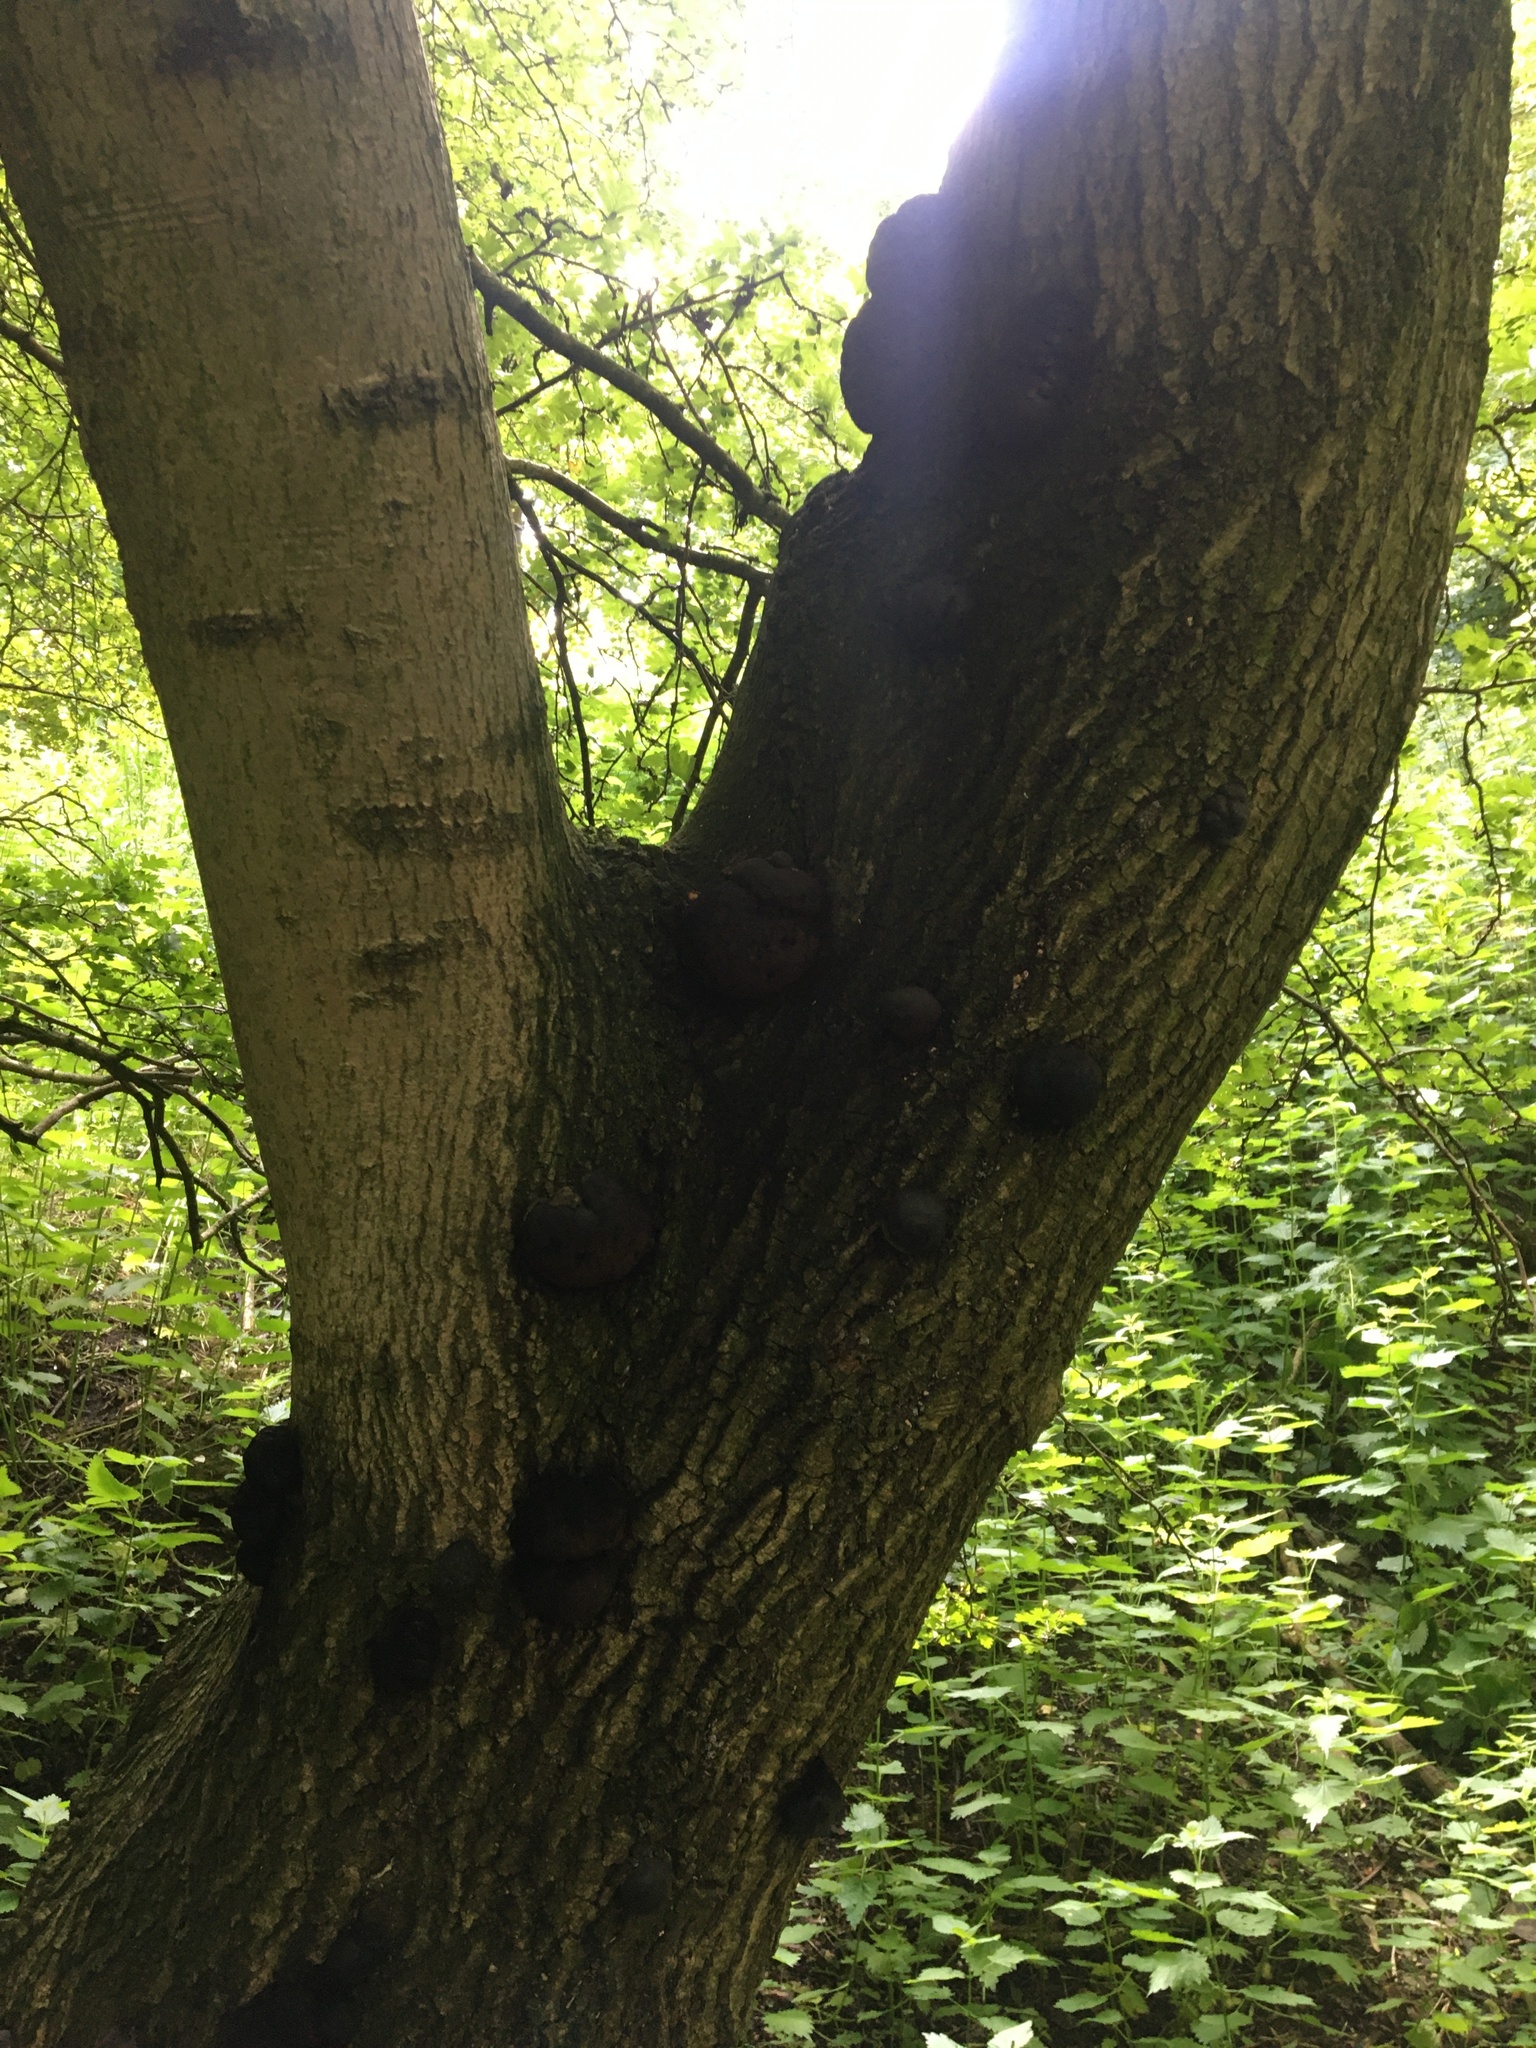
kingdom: Fungi
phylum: Ascomycota
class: Sordariomycetes
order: Xylariales
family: Hypoxylaceae
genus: Daldinia
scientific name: Daldinia concentrica
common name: Cramp balls
